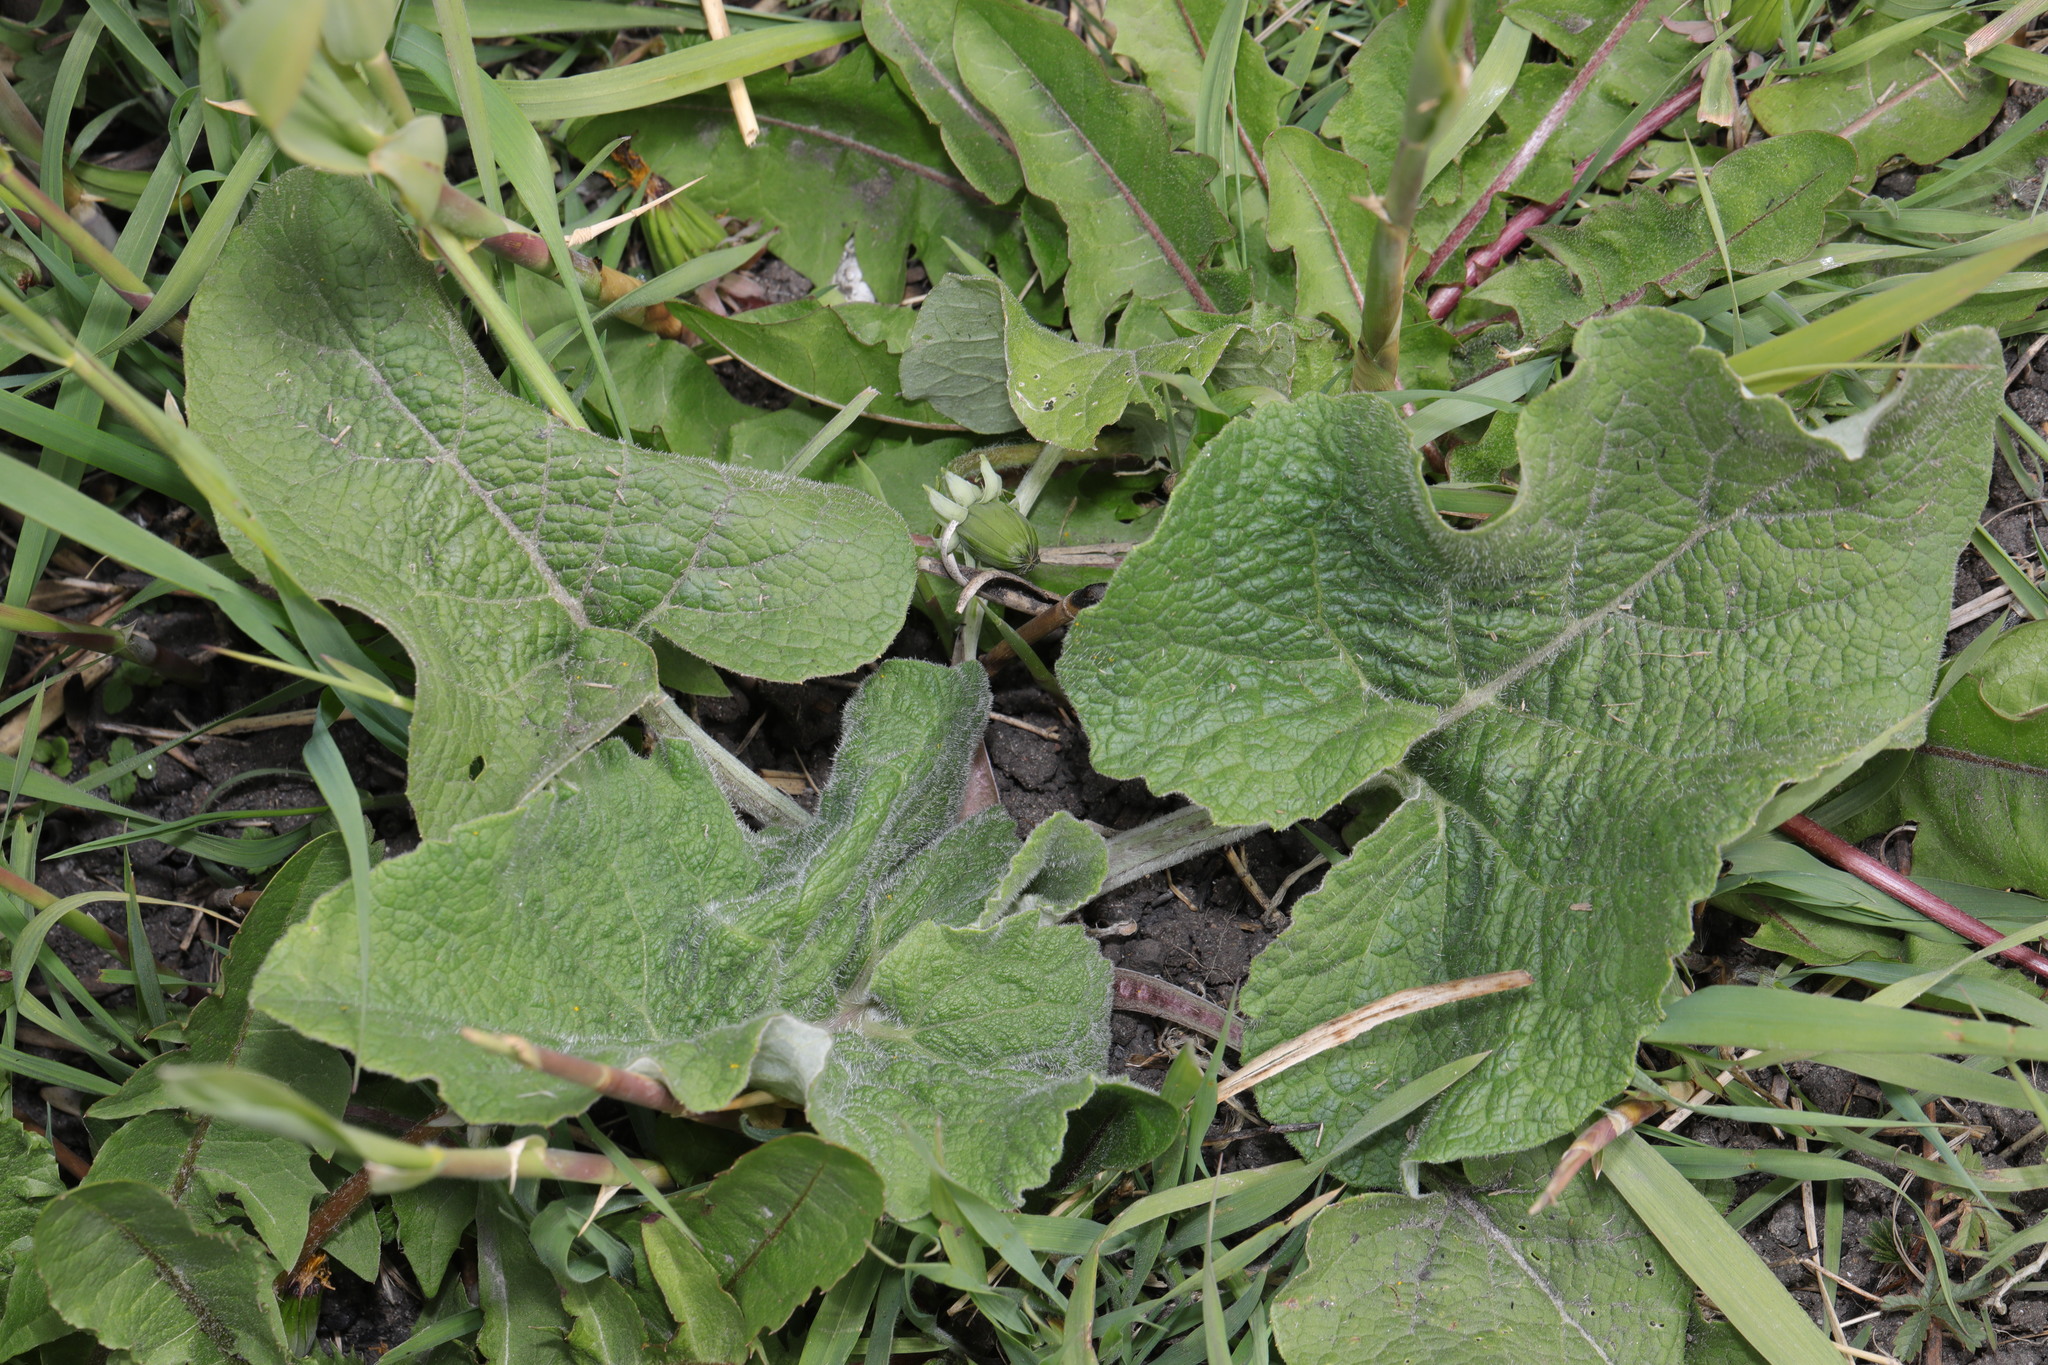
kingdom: Plantae
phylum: Tracheophyta
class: Magnoliopsida
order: Asterales
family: Asteraceae
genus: Arctium
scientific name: Arctium minus
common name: Lesser burdock
